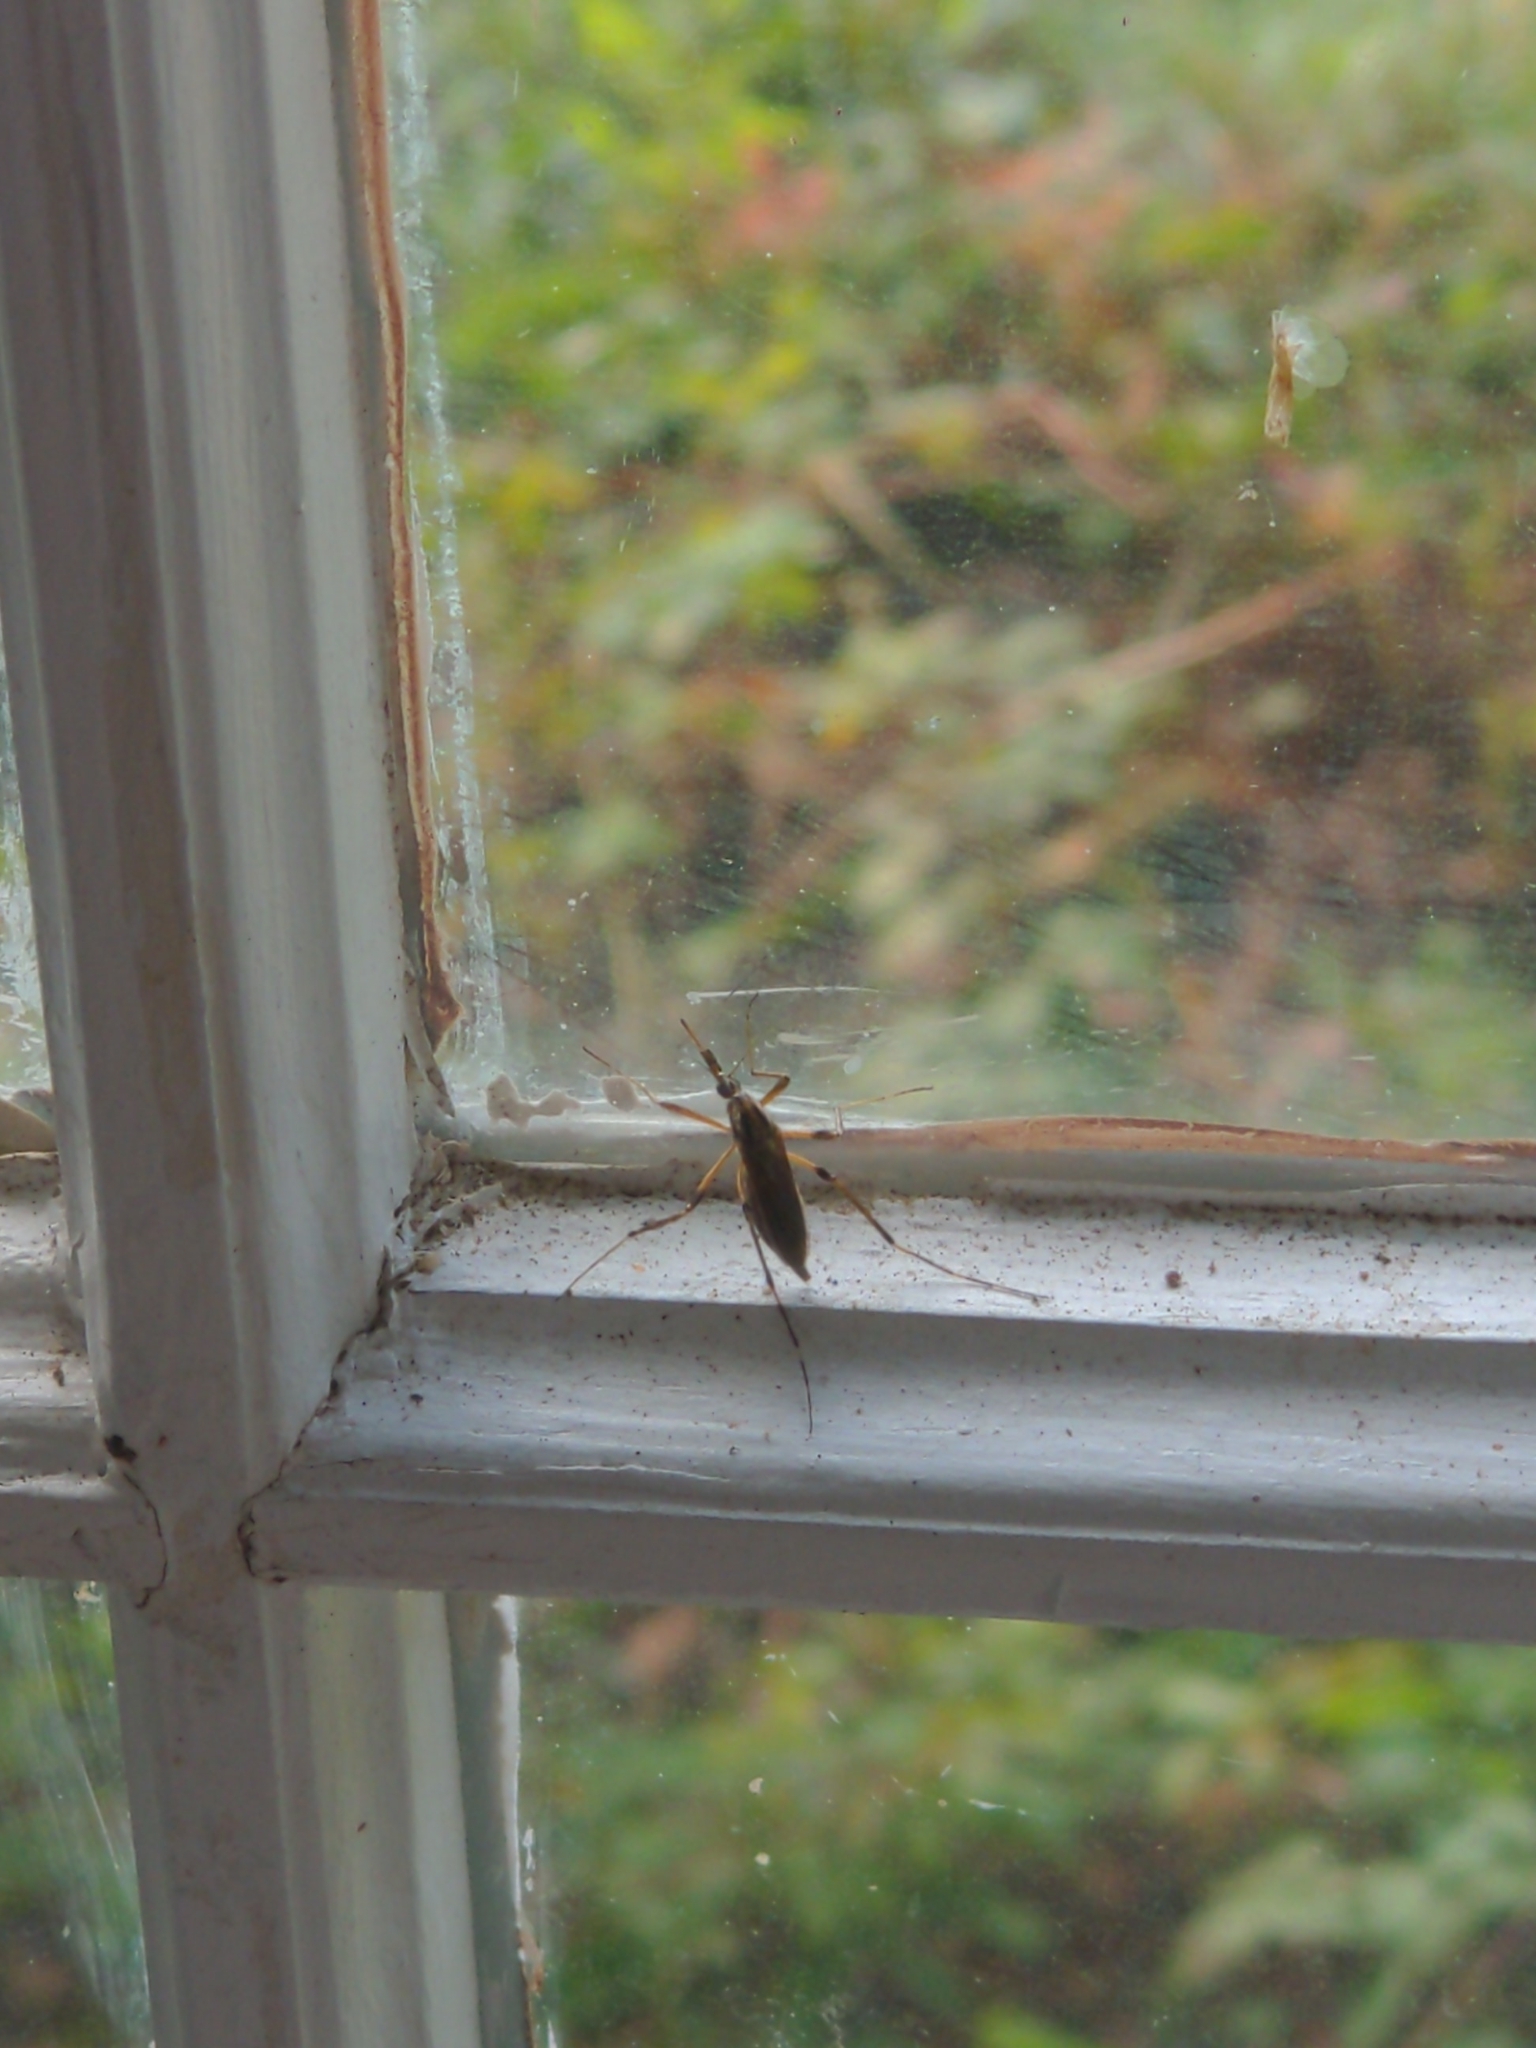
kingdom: Animalia
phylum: Arthropoda
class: Insecta
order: Diptera
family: Culicidae
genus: Psorophora
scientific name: Psorophora ciliata
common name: Gallinipper
